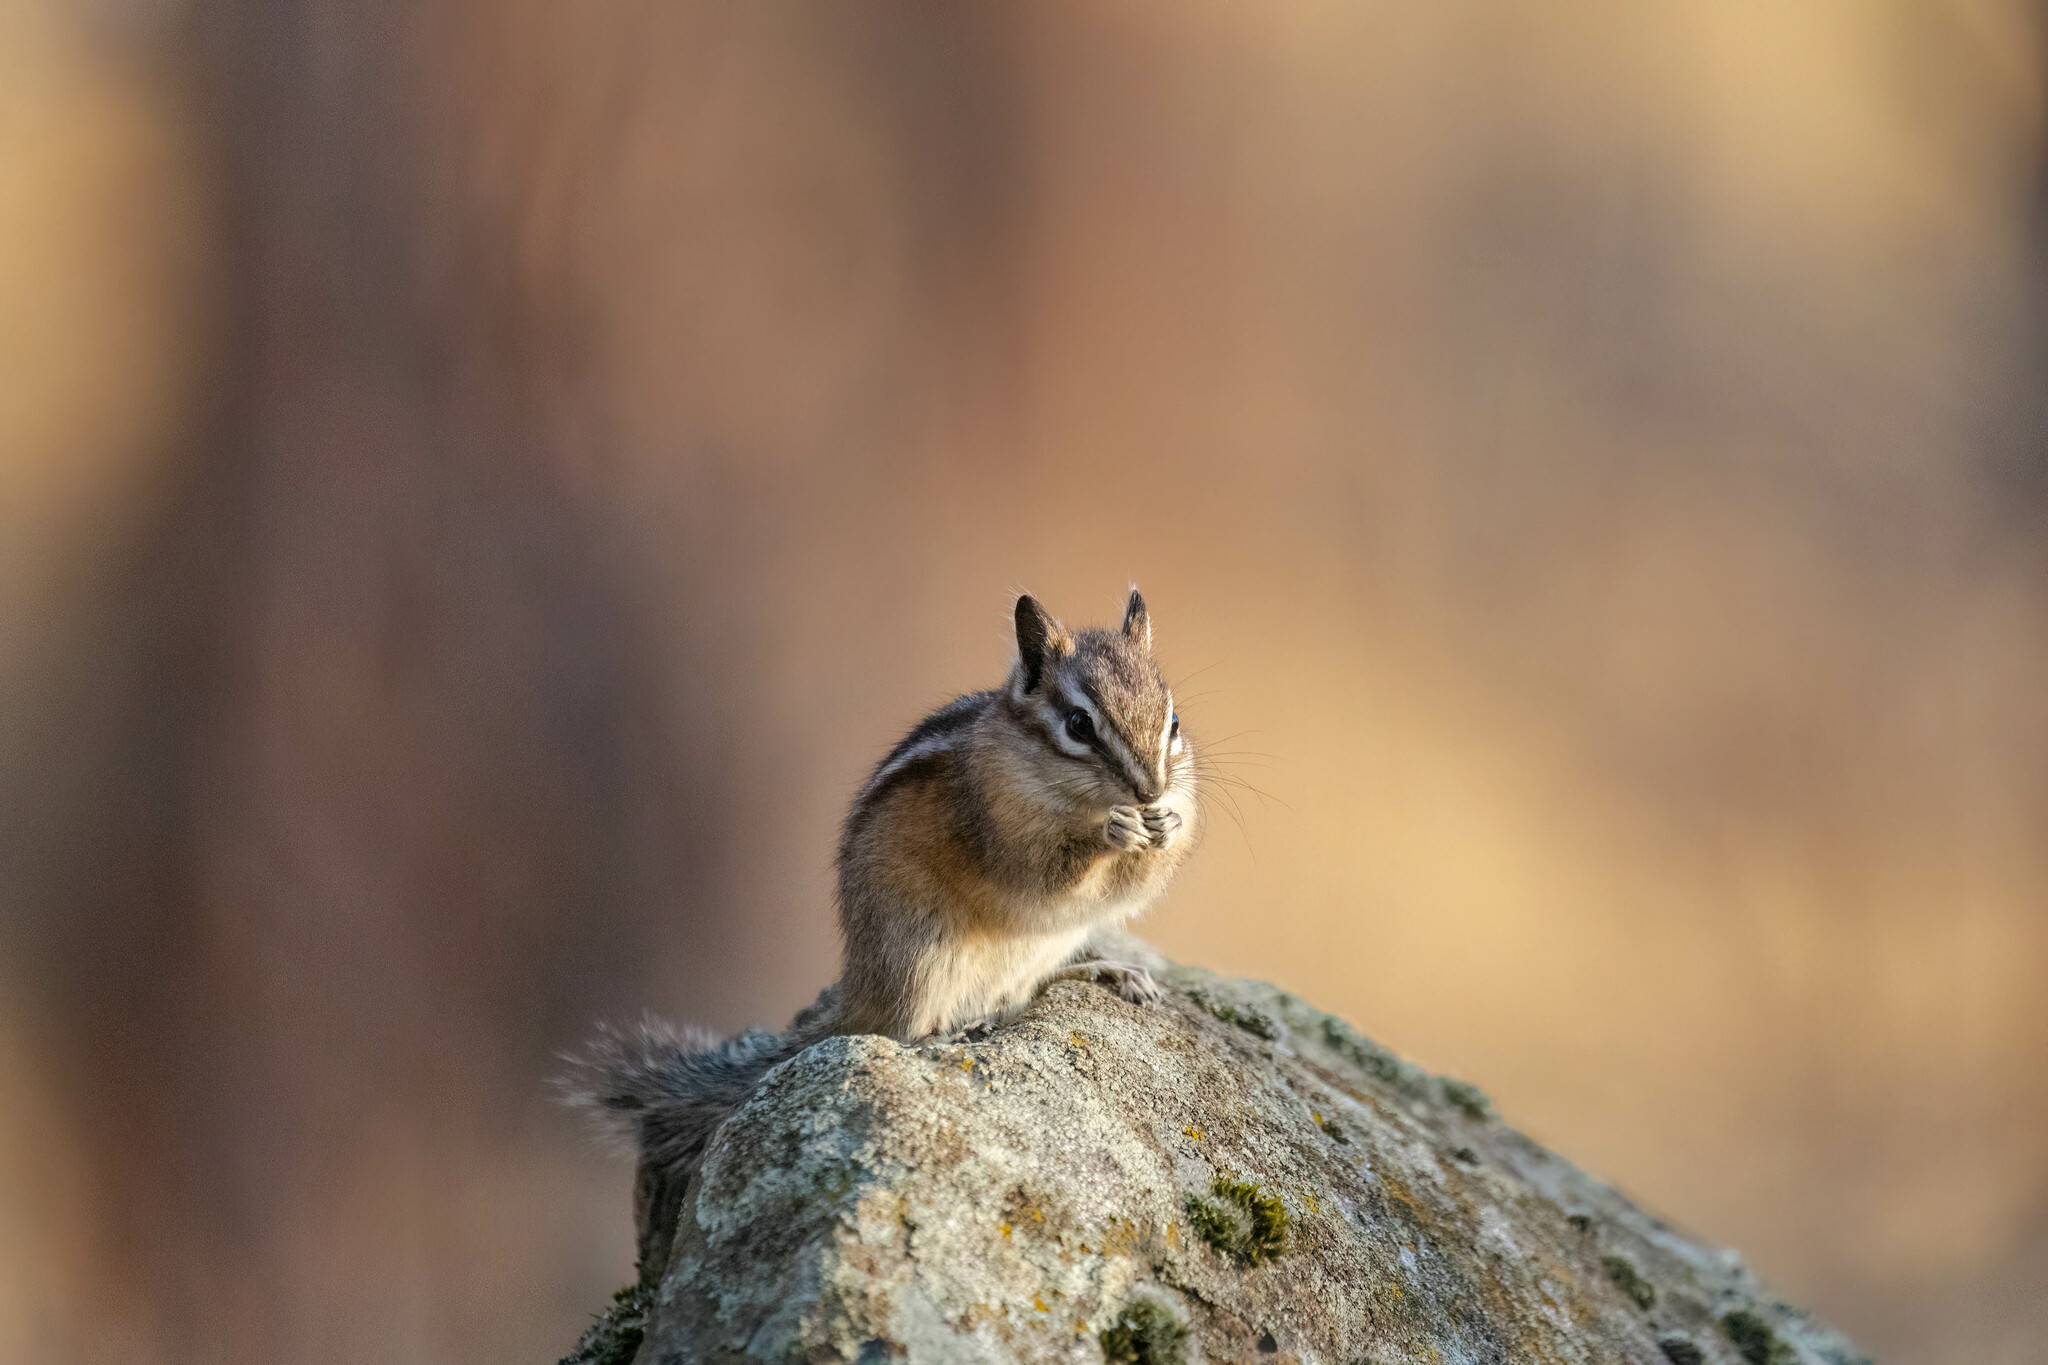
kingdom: Animalia
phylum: Chordata
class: Mammalia
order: Rodentia
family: Sciuridae
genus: Tamias
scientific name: Tamias amoenus
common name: Yellow-pine chipmunk
